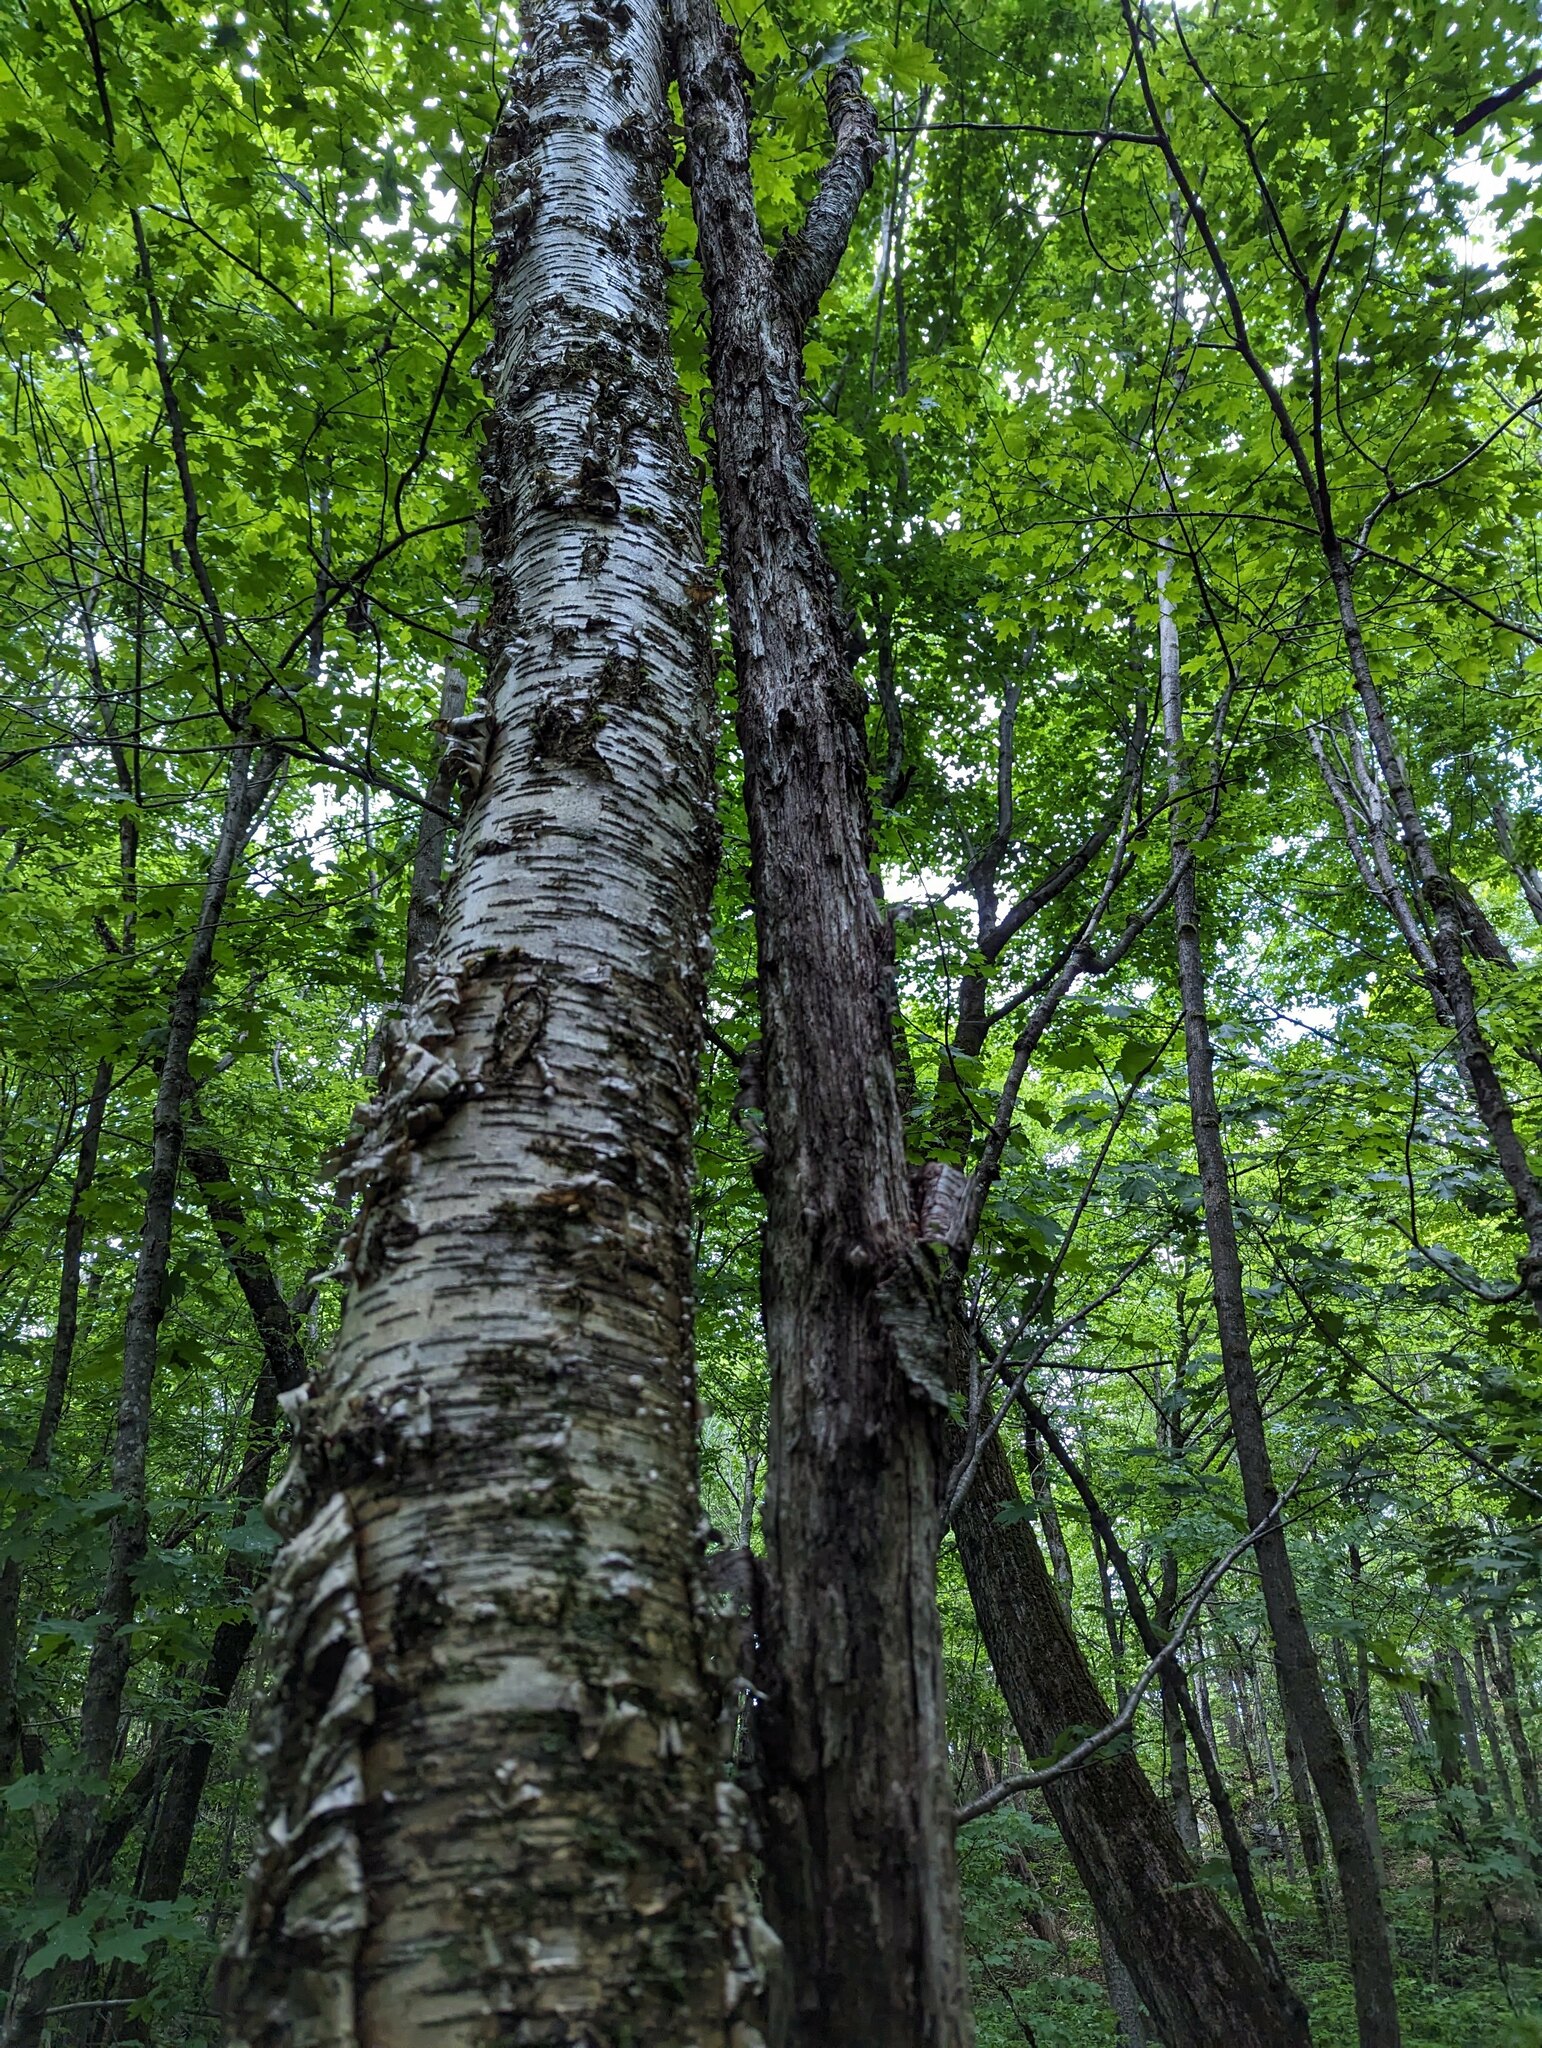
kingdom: Plantae
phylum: Tracheophyta
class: Magnoliopsida
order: Fagales
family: Betulaceae
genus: Betula
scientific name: Betula alleghaniensis
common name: Yellow birch
